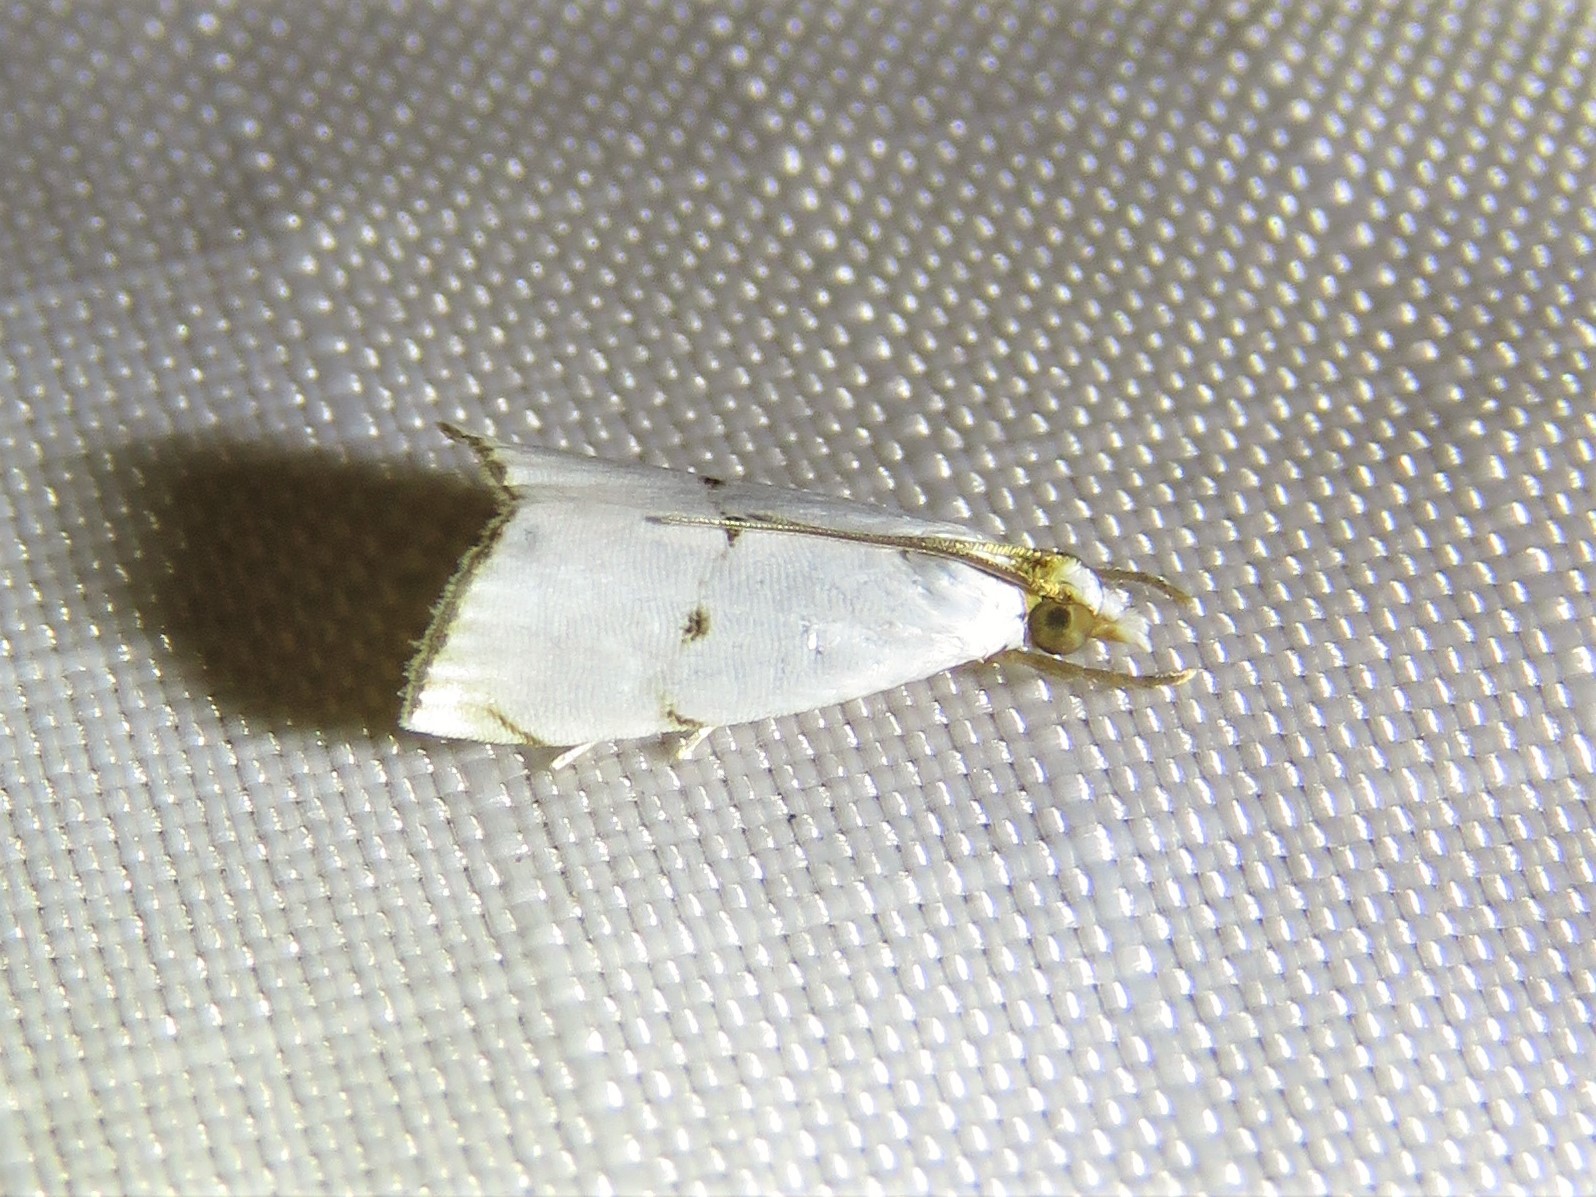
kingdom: Animalia
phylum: Arthropoda
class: Insecta
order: Lepidoptera
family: Crambidae
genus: Argyria
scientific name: Argyria pusillalis
